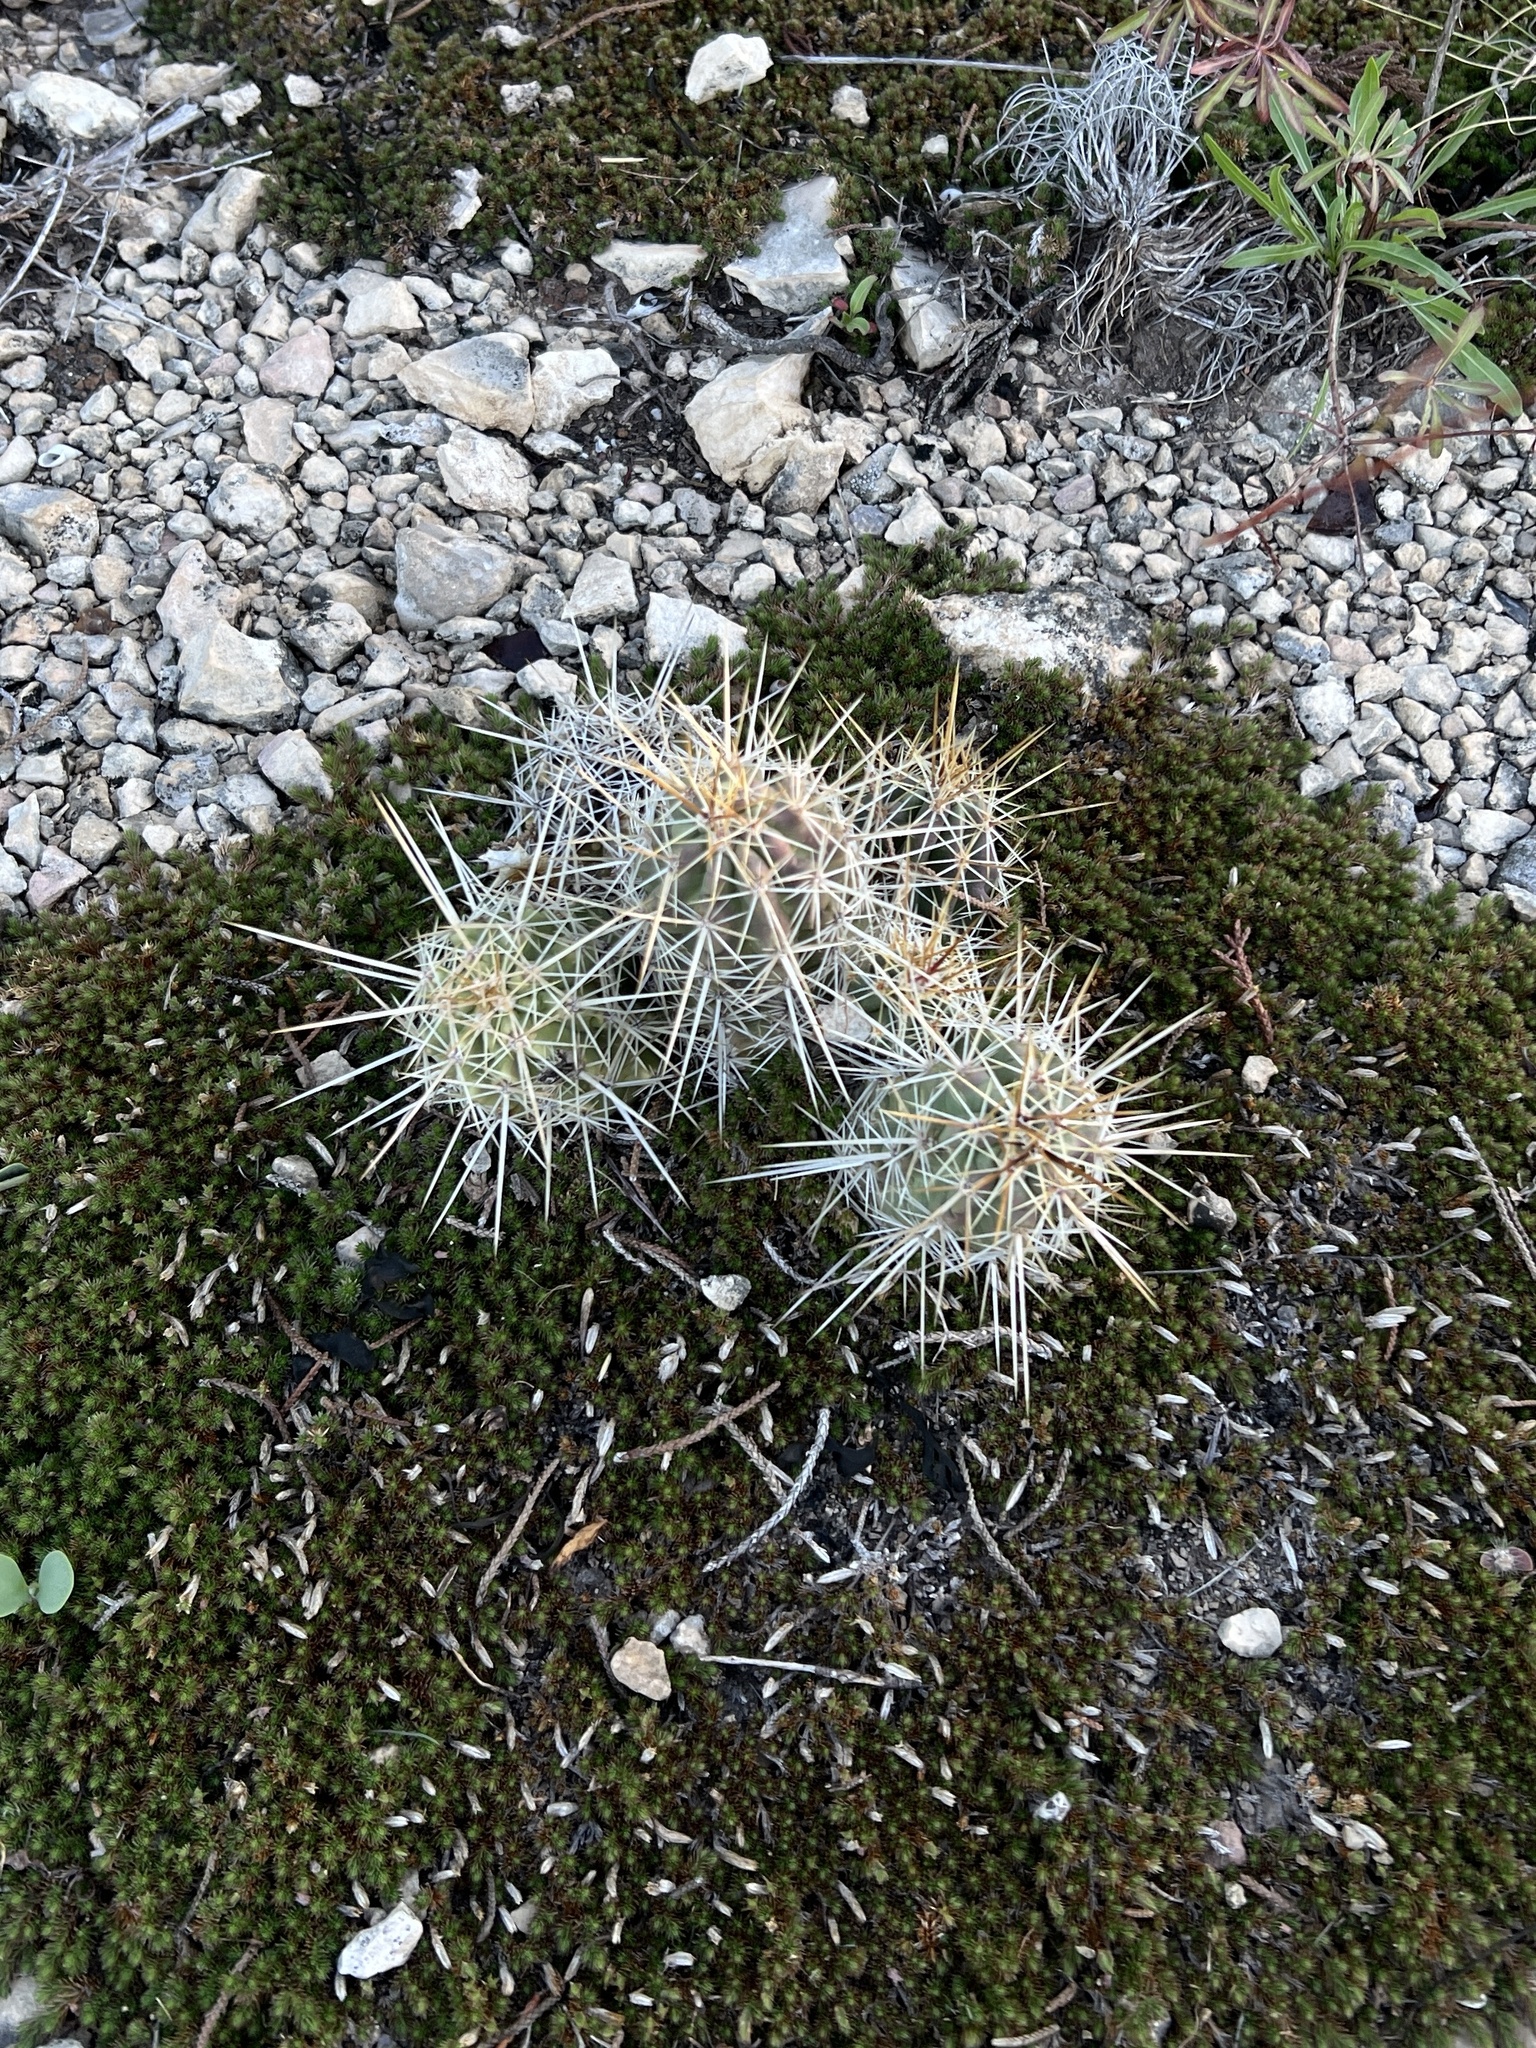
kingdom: Plantae
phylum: Tracheophyta
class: Magnoliopsida
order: Caryophyllales
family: Cactaceae
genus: Echinocereus
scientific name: Echinocereus enneacanthus
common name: Pitaya
